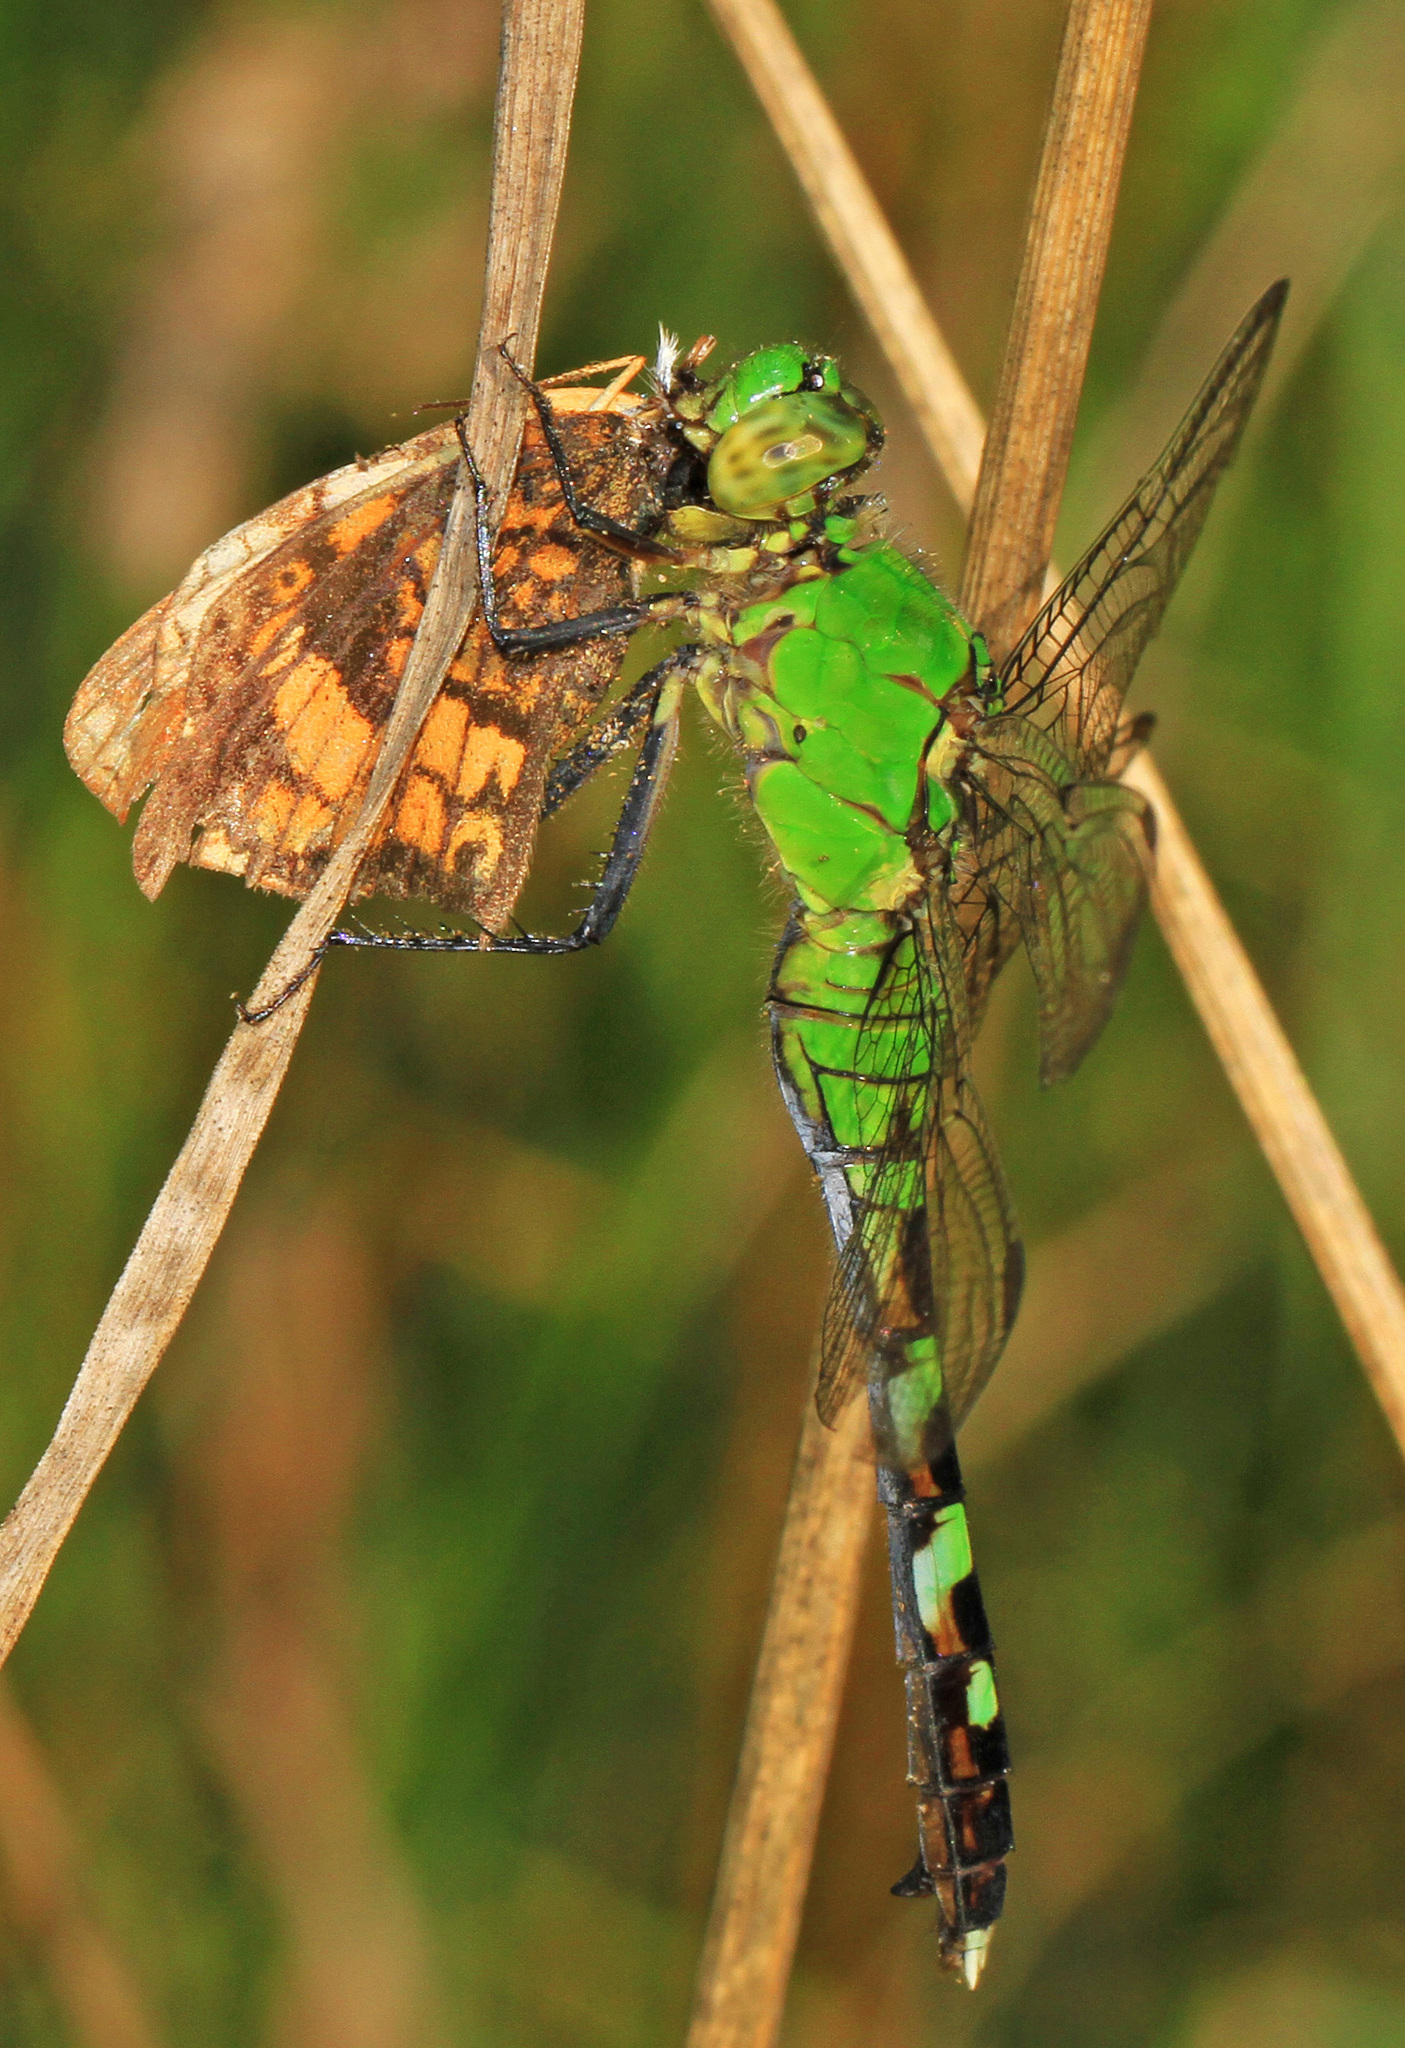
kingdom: Animalia
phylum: Arthropoda
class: Insecta
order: Odonata
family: Libellulidae
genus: Erythemis
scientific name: Erythemis simplicicollis
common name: Eastern pondhawk
